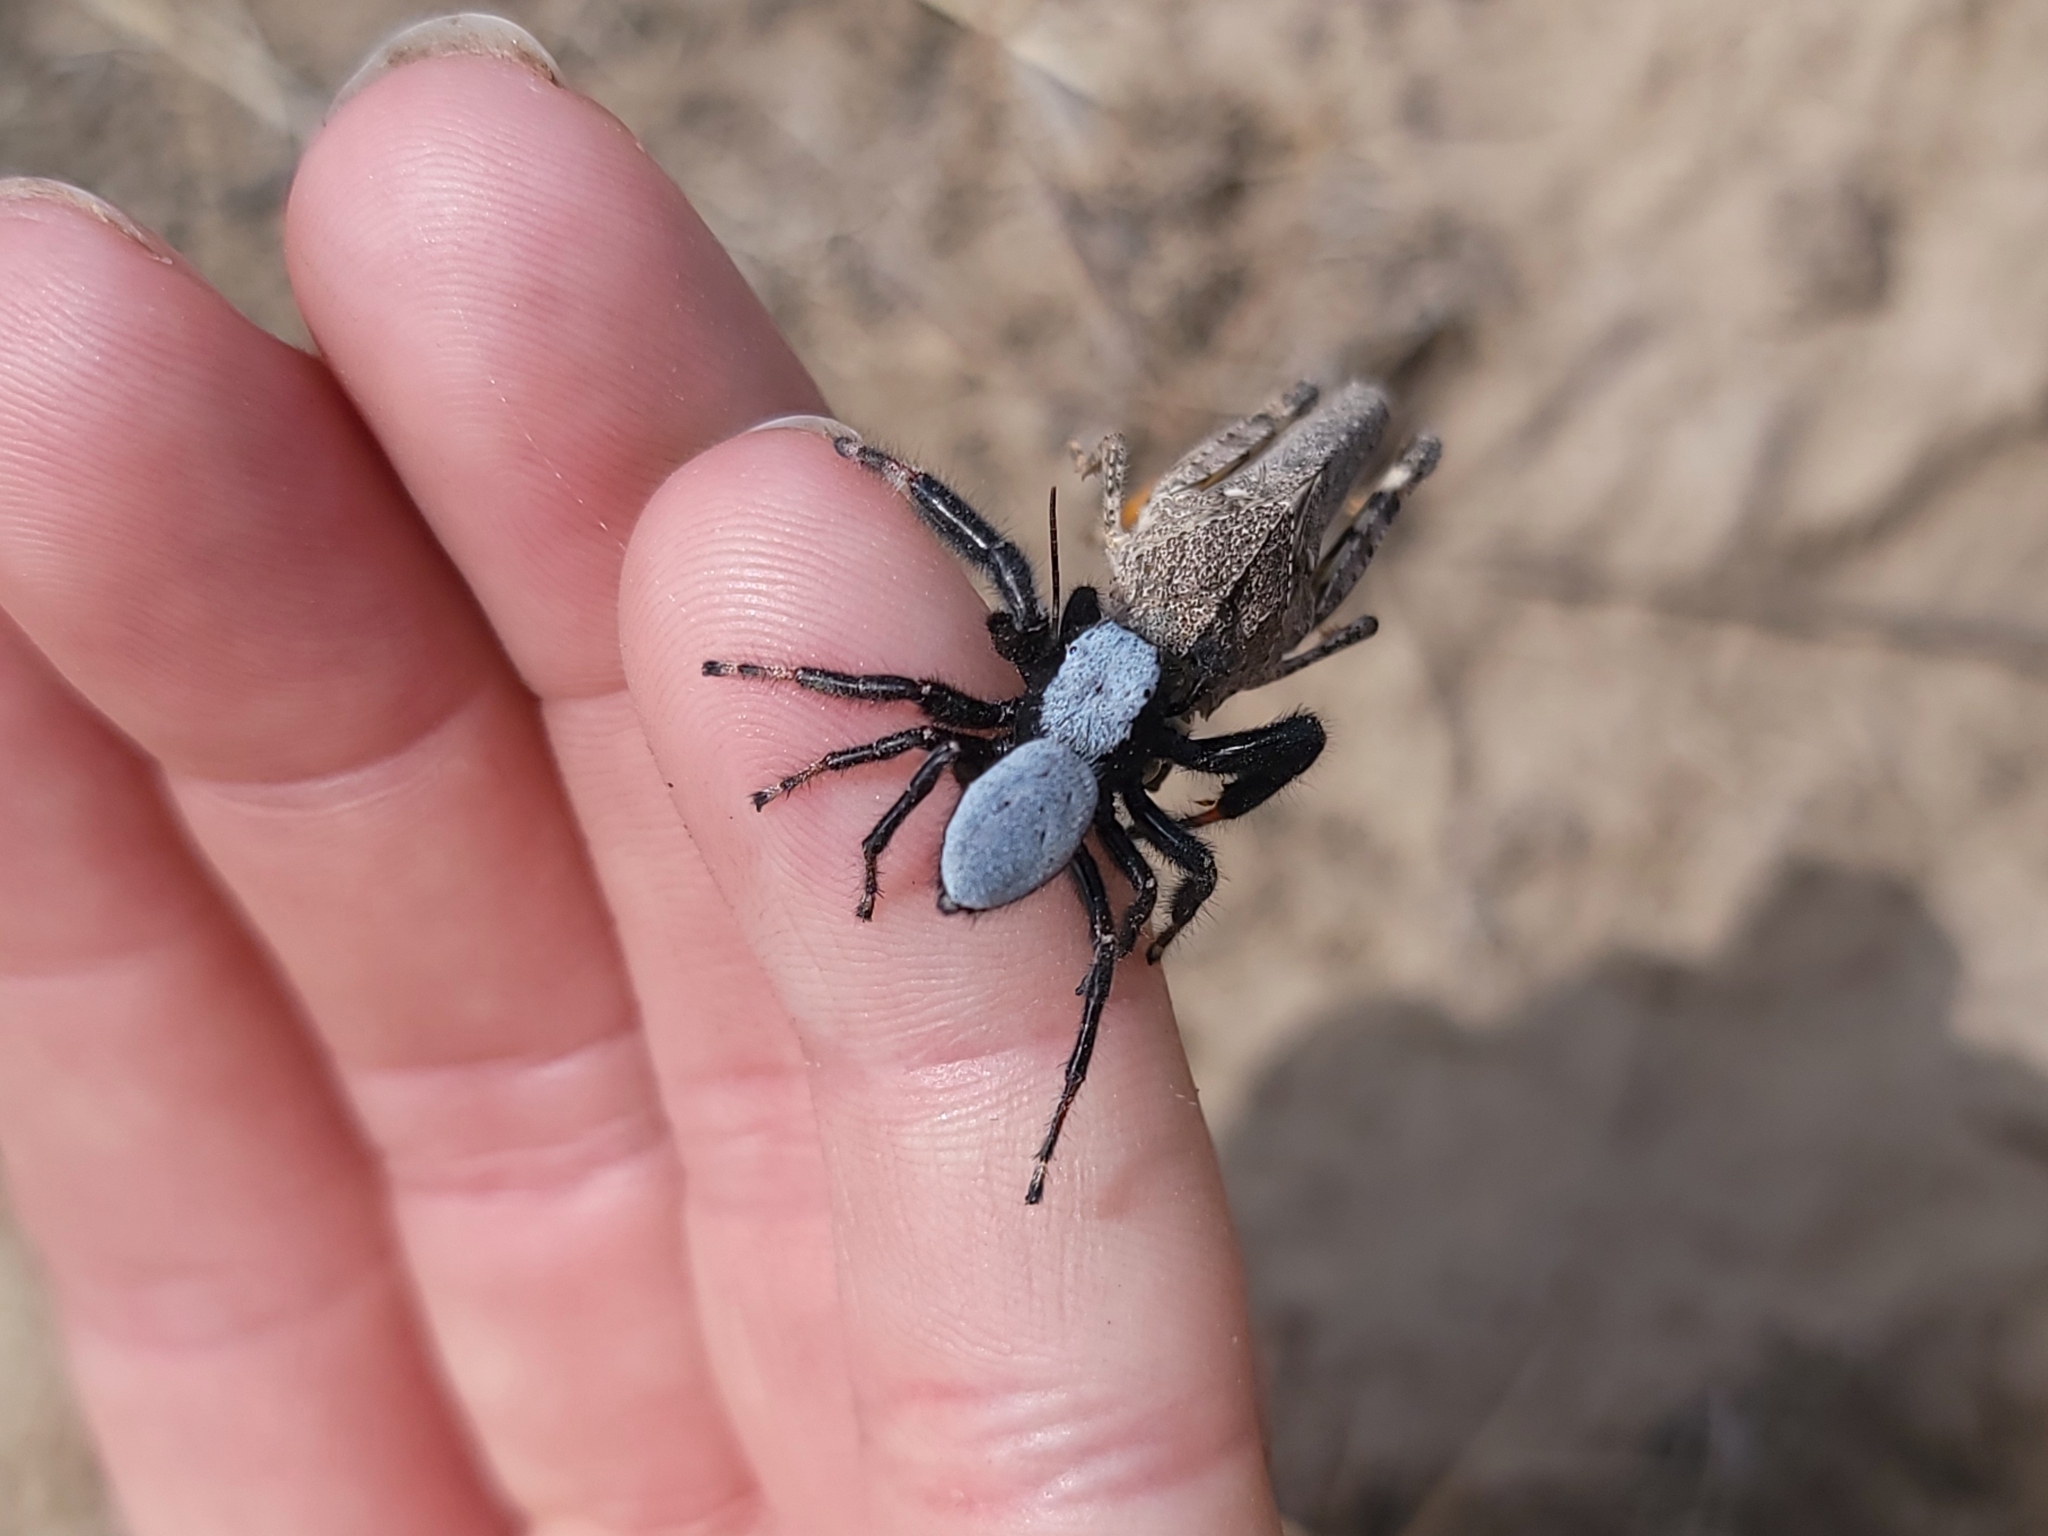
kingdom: Animalia
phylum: Arthropoda
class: Arachnida
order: Araneae
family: Salticidae
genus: Phidippus
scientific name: Phidippus octopunctatus
